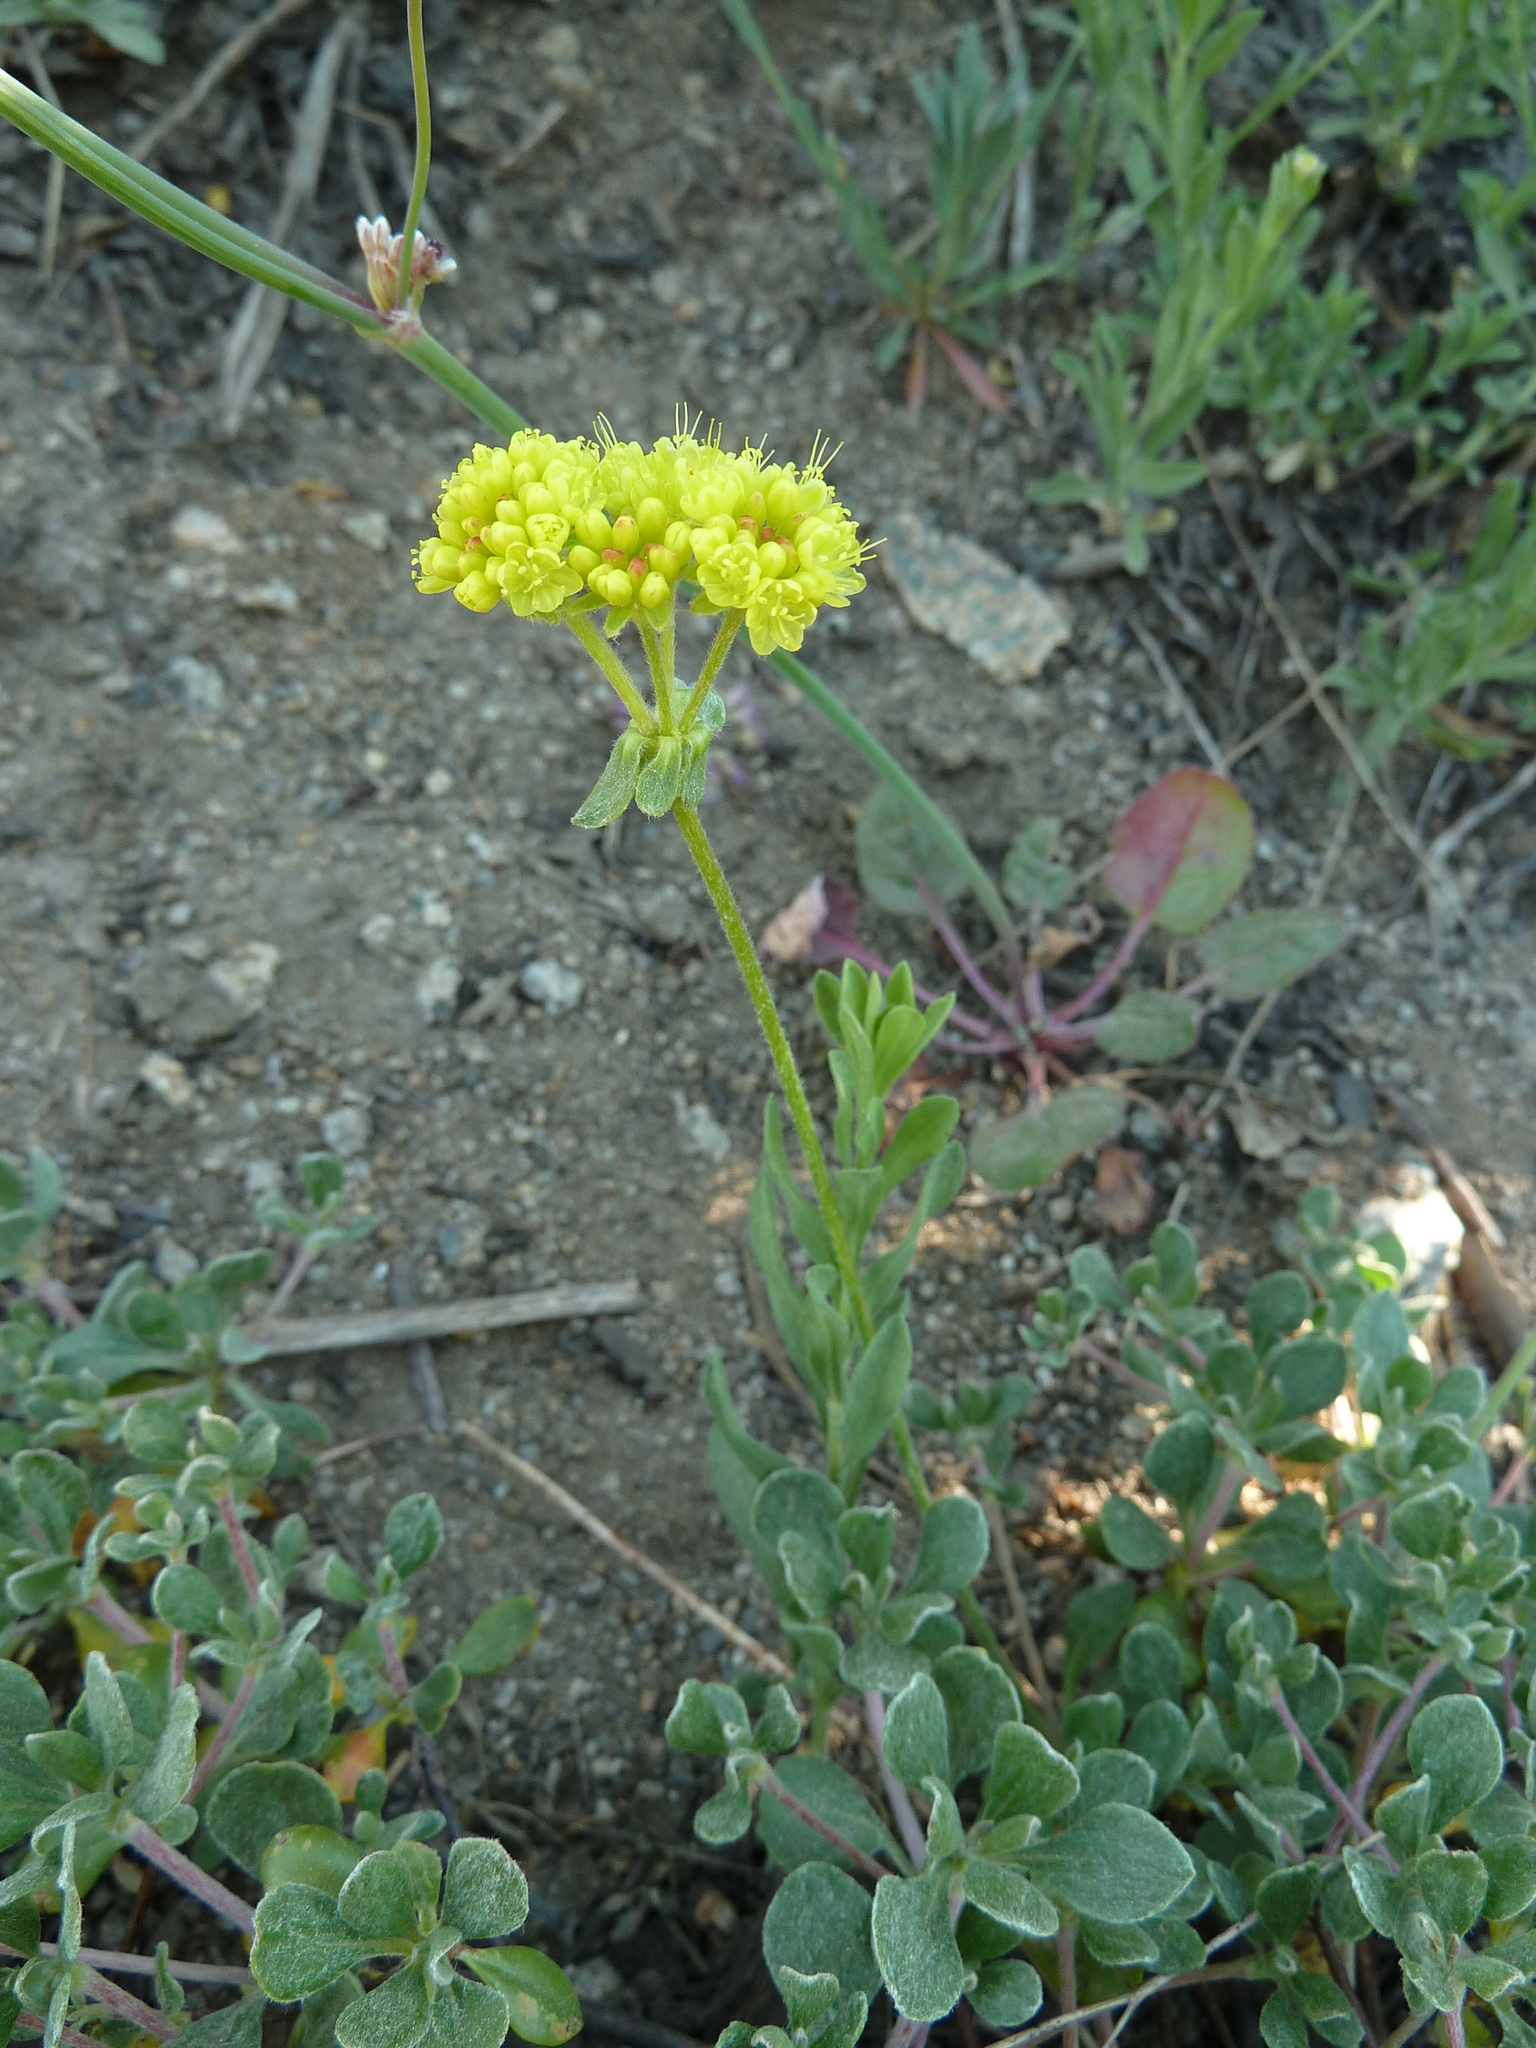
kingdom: Plantae
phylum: Tracheophyta
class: Magnoliopsida
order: Caryophyllales
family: Polygonaceae
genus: Eriogonum
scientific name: Eriogonum umbellatum
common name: Sulfur-buckwheat
